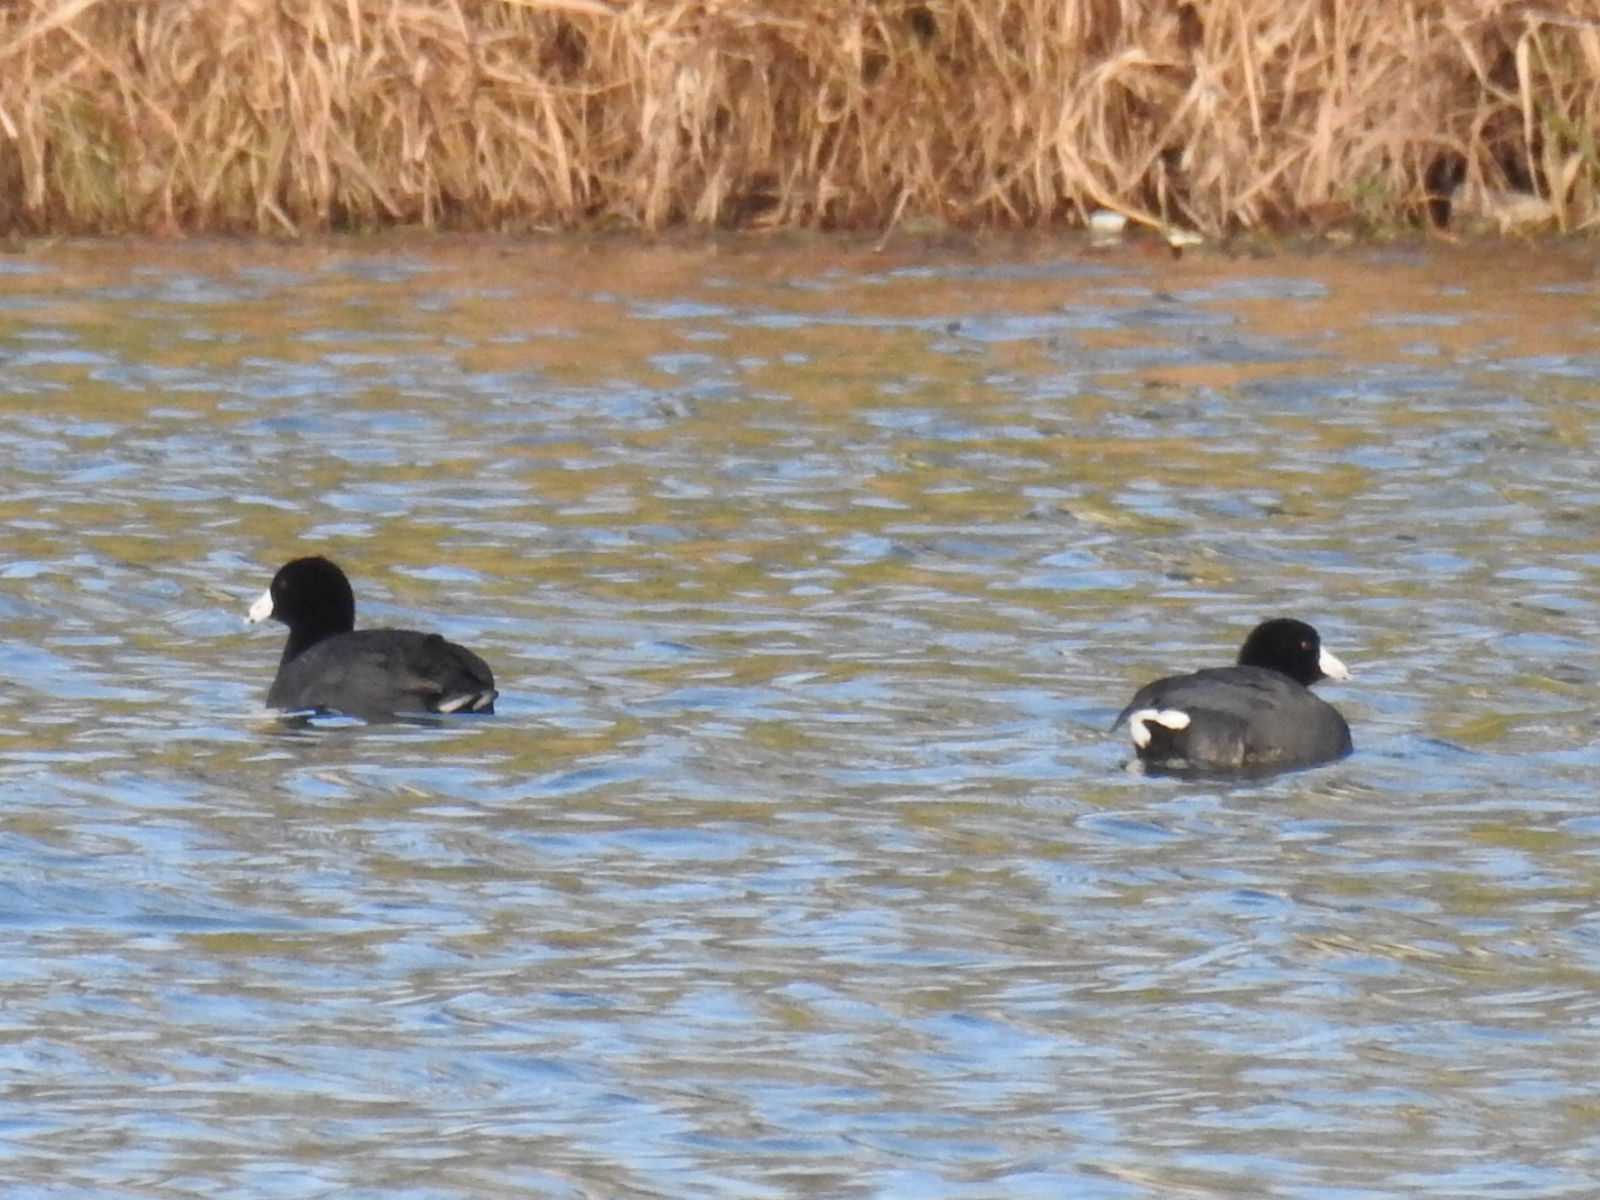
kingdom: Animalia
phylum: Chordata
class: Aves
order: Gruiformes
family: Rallidae
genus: Fulica
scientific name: Fulica americana
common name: American coot
